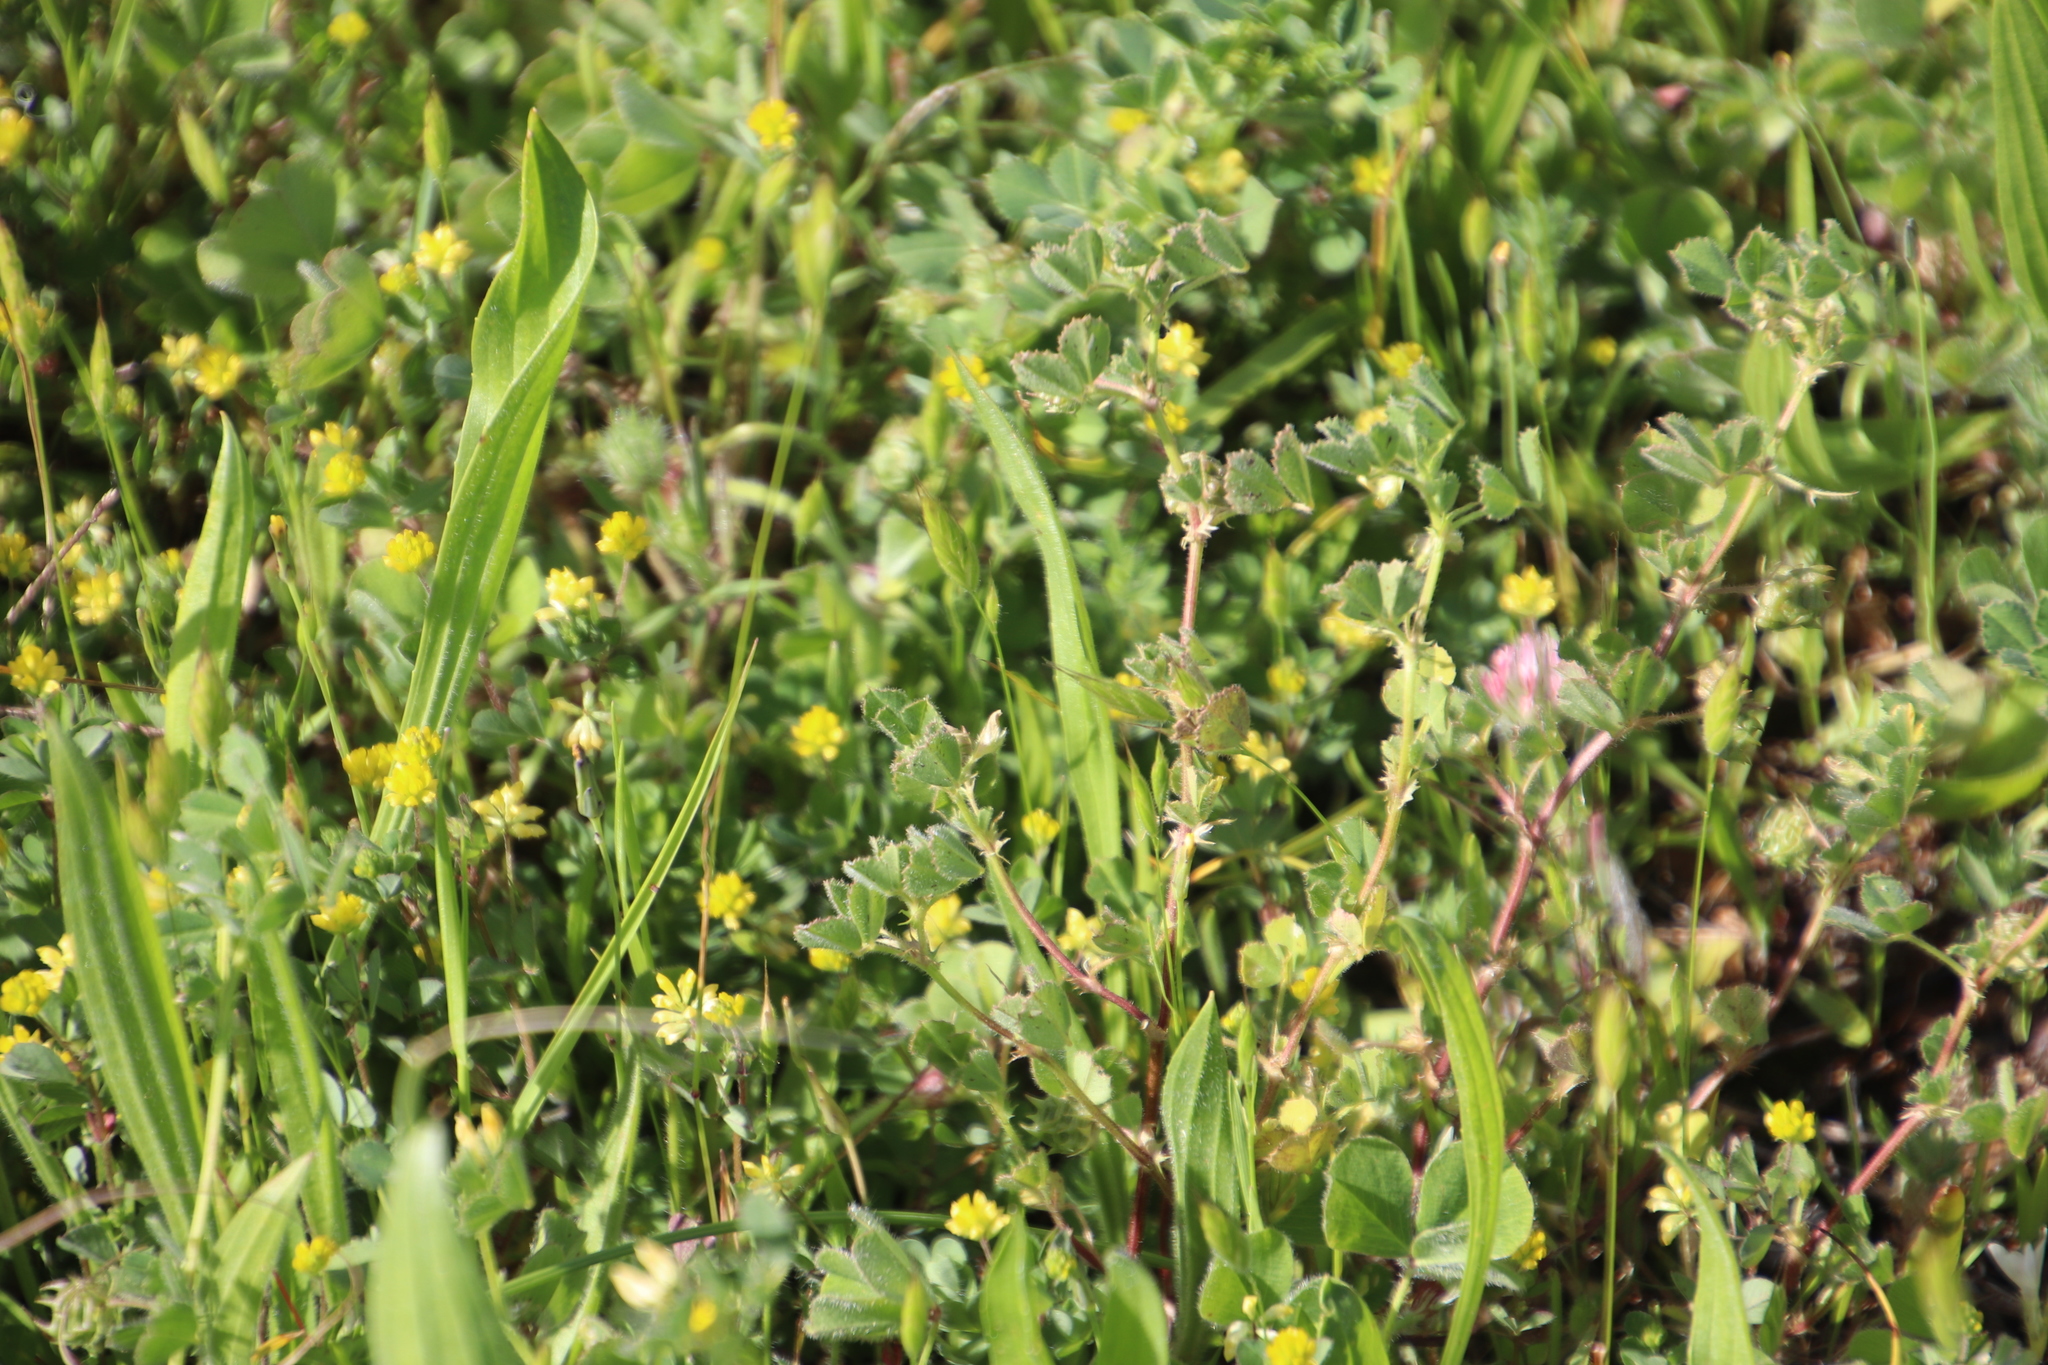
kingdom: Plantae
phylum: Tracheophyta
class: Magnoliopsida
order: Fabales
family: Fabaceae
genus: Trifolium
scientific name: Trifolium dubium
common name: Suckling clover
